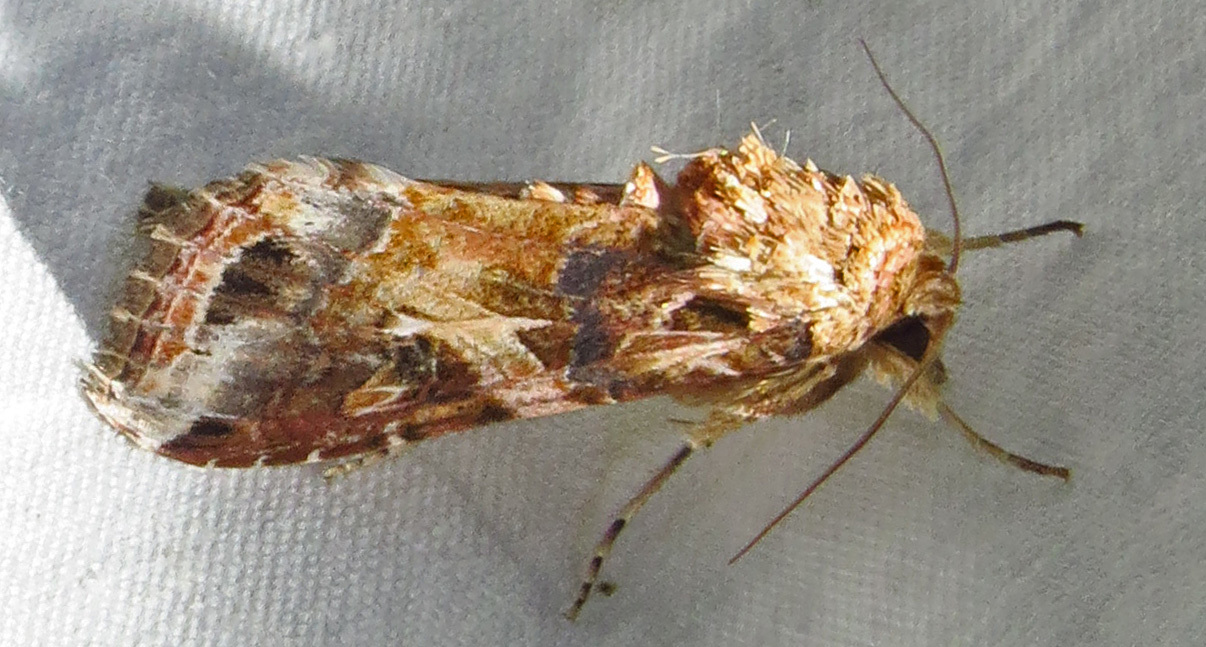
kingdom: Animalia
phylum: Arthropoda
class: Insecta
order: Lepidoptera
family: Noctuidae
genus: Spodoptera
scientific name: Spodoptera ornithogalli
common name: Yellow-striped armyworm
